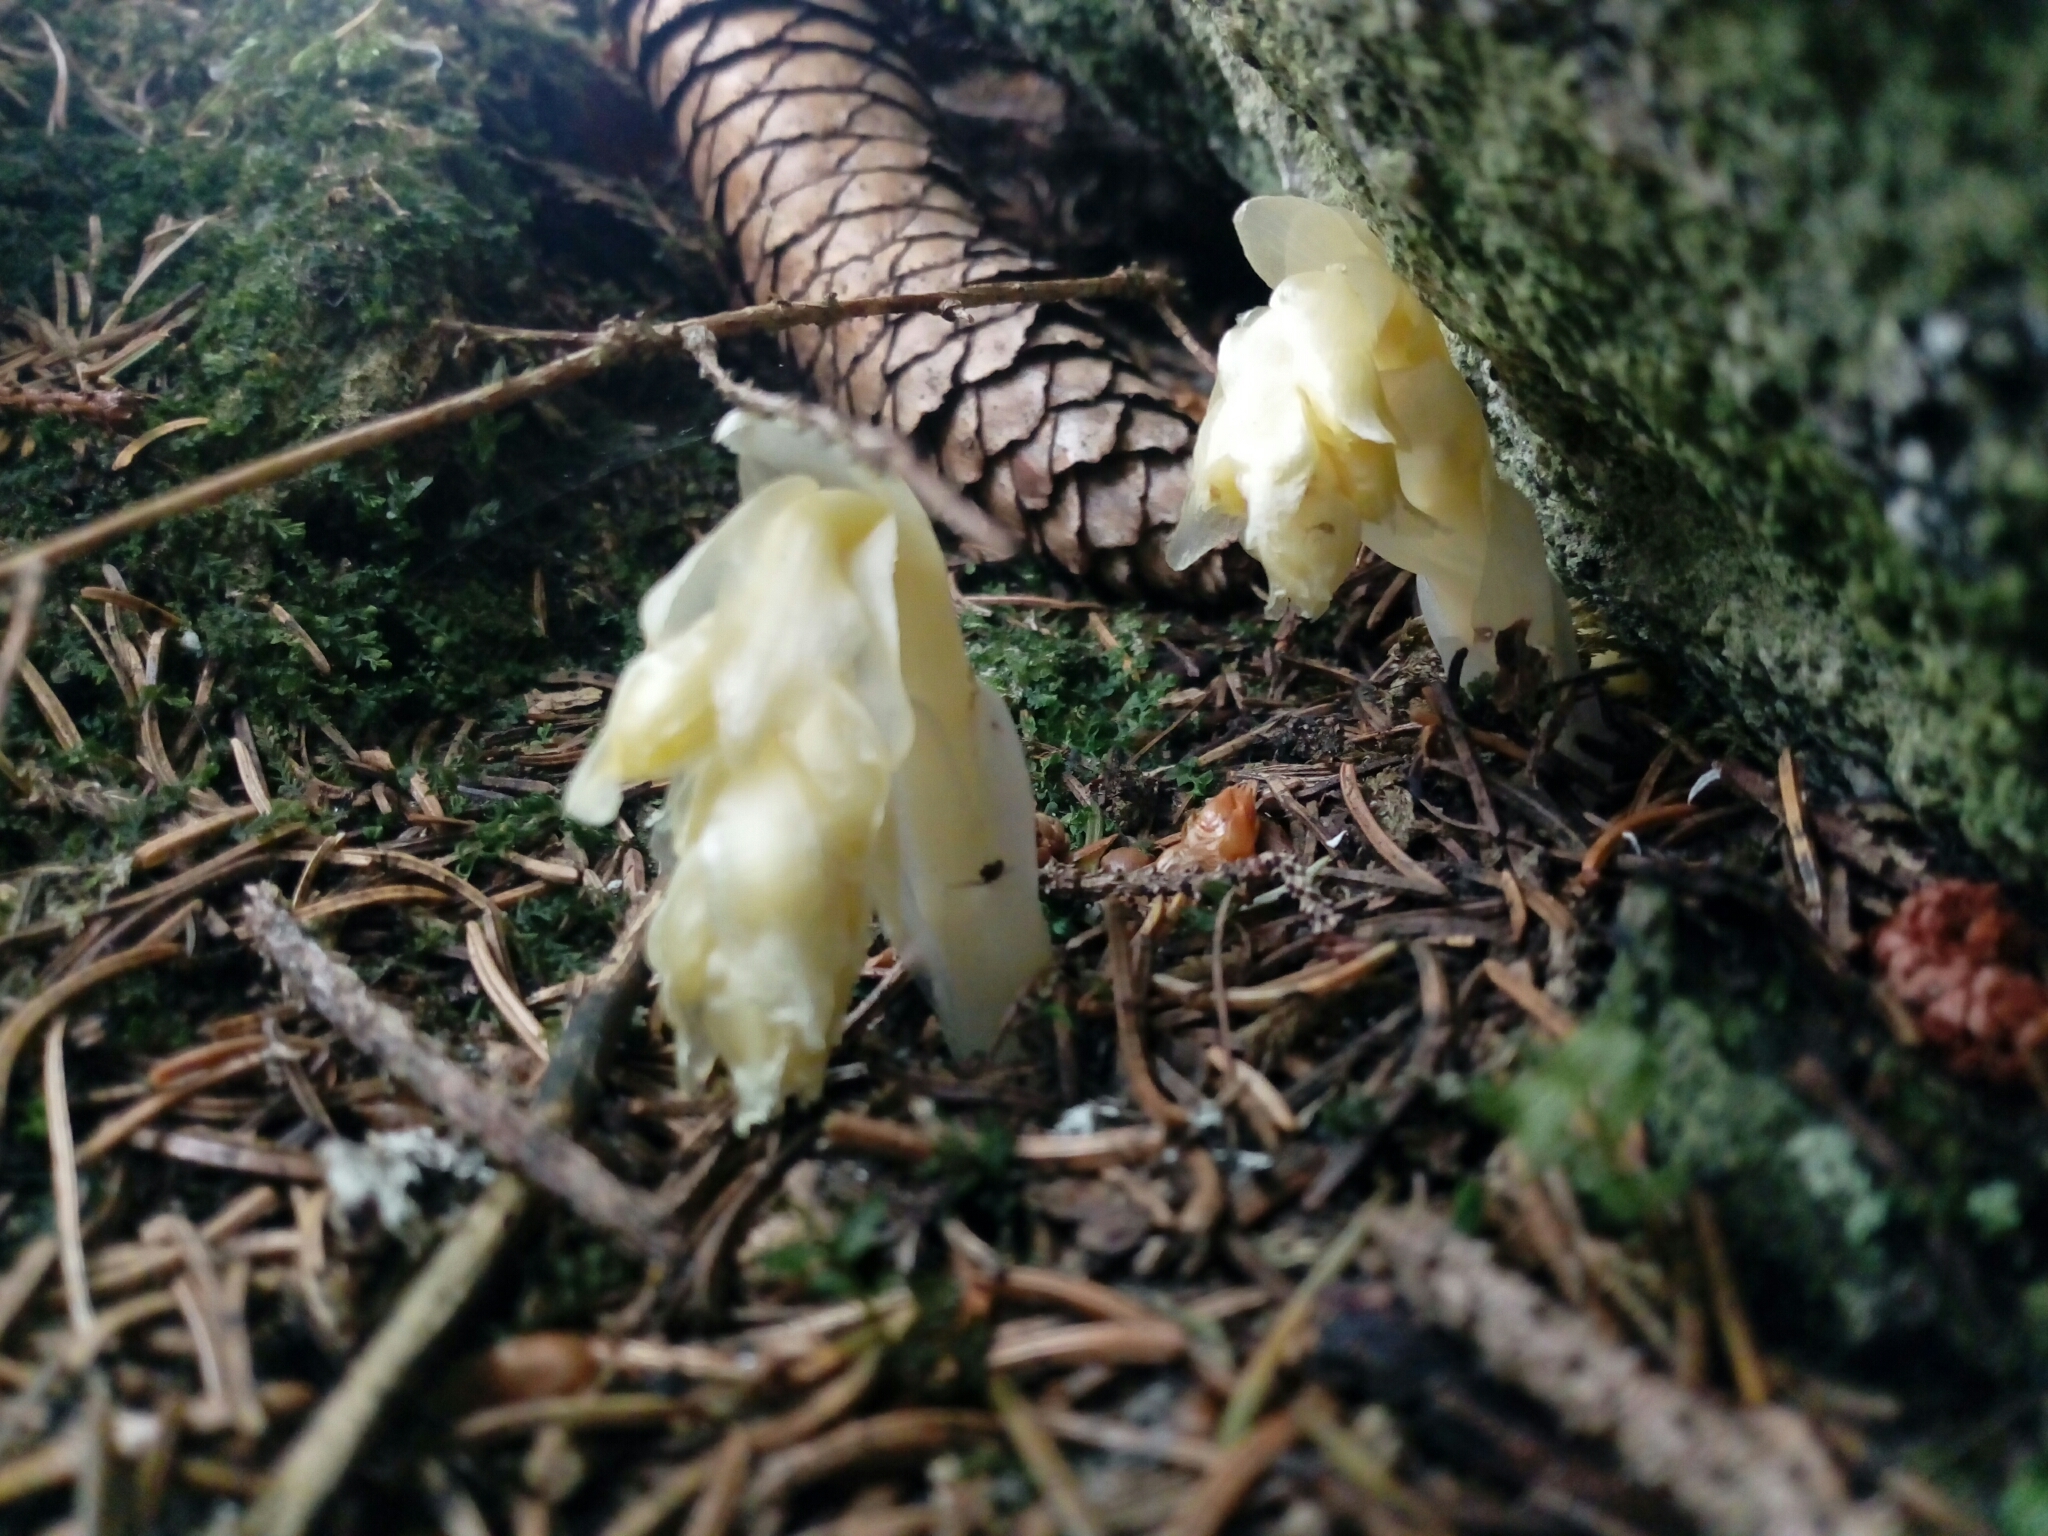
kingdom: Plantae
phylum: Tracheophyta
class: Magnoliopsida
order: Ericales
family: Ericaceae
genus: Hypopitys
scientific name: Hypopitys monotropa
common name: Yellow bird's-nest
